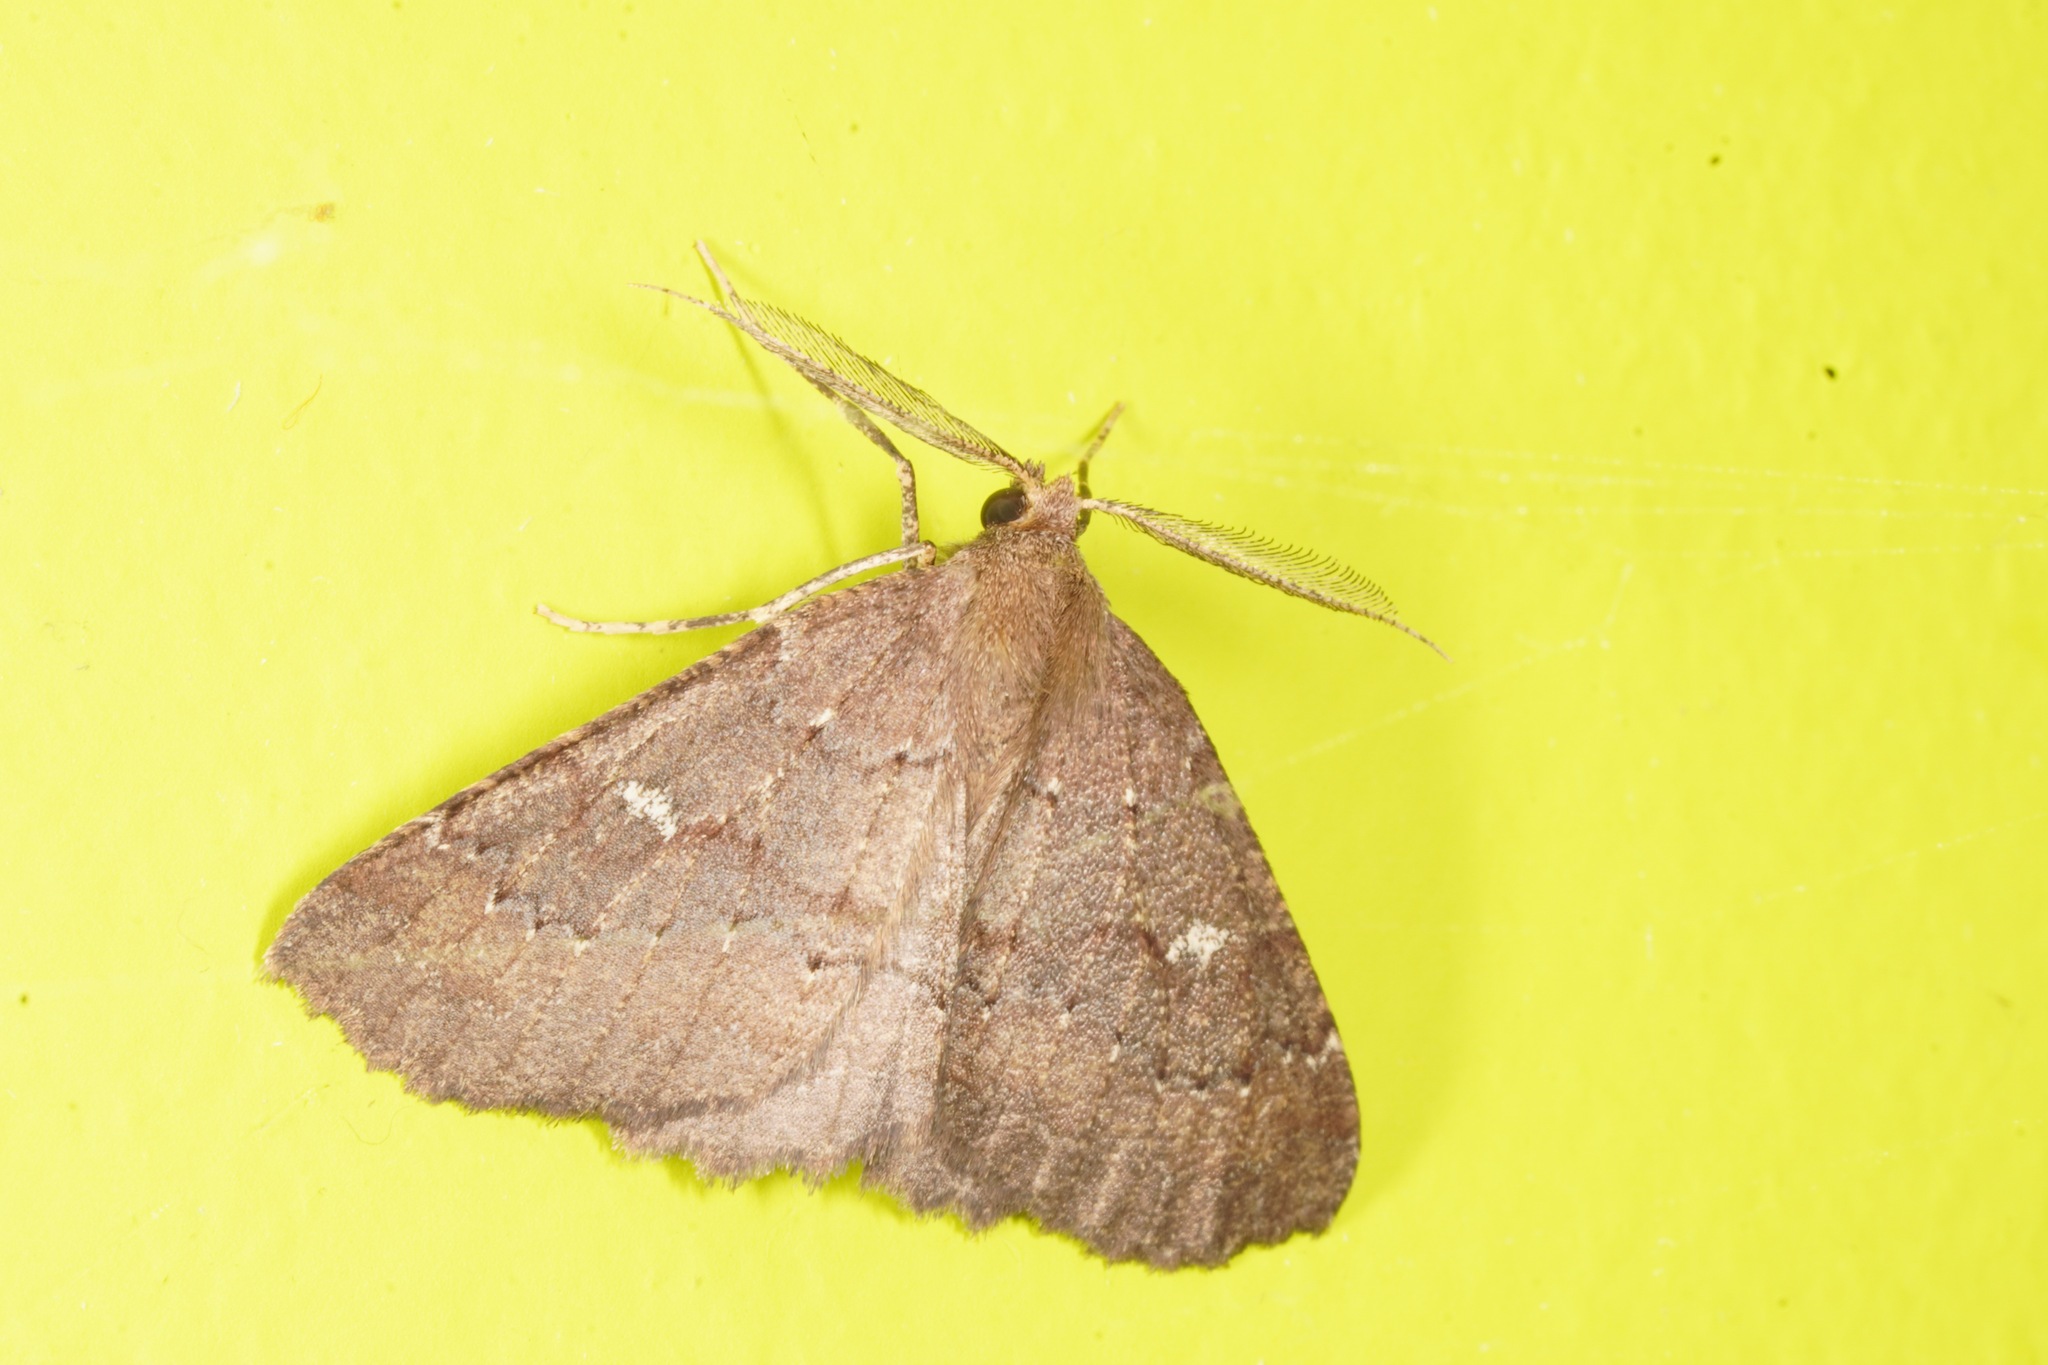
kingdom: Animalia
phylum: Arthropoda
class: Insecta
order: Lepidoptera
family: Geometridae
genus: Cleora
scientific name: Cleora scriptaria
